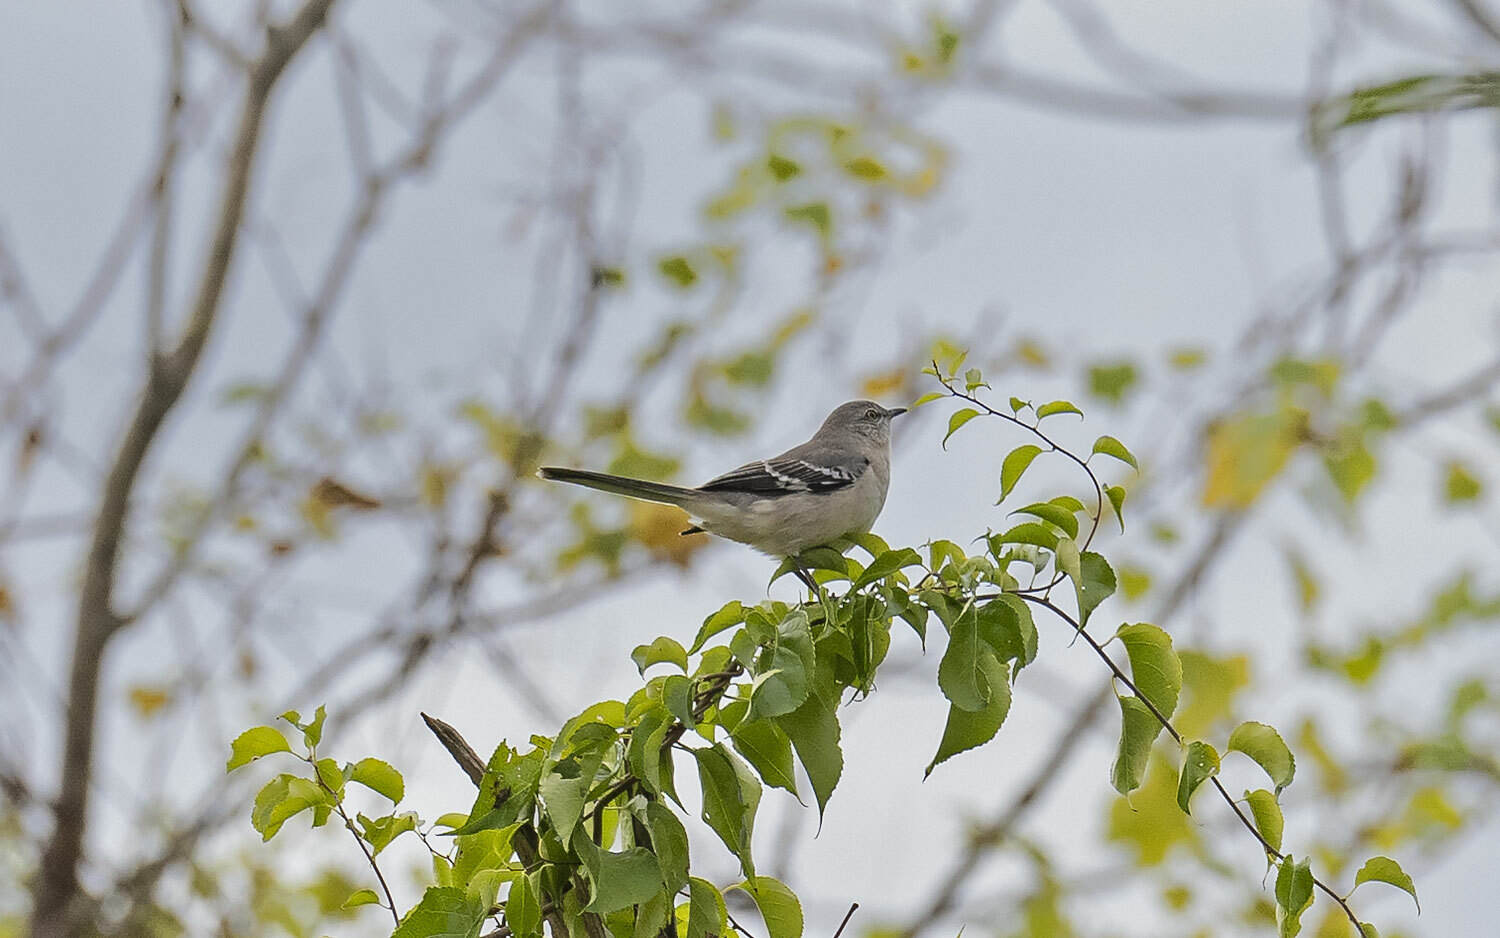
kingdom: Animalia
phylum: Chordata
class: Aves
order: Passeriformes
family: Mimidae
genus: Mimus
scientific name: Mimus polyglottos
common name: Northern mockingbird
